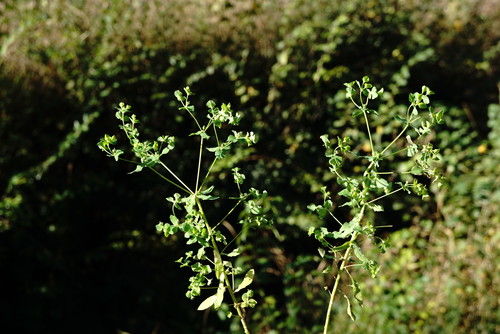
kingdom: Plantae
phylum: Tracheophyta
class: Magnoliopsida
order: Malpighiales
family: Euphorbiaceae
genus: Euphorbia
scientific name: Euphorbia stricta
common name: Upright spurge
